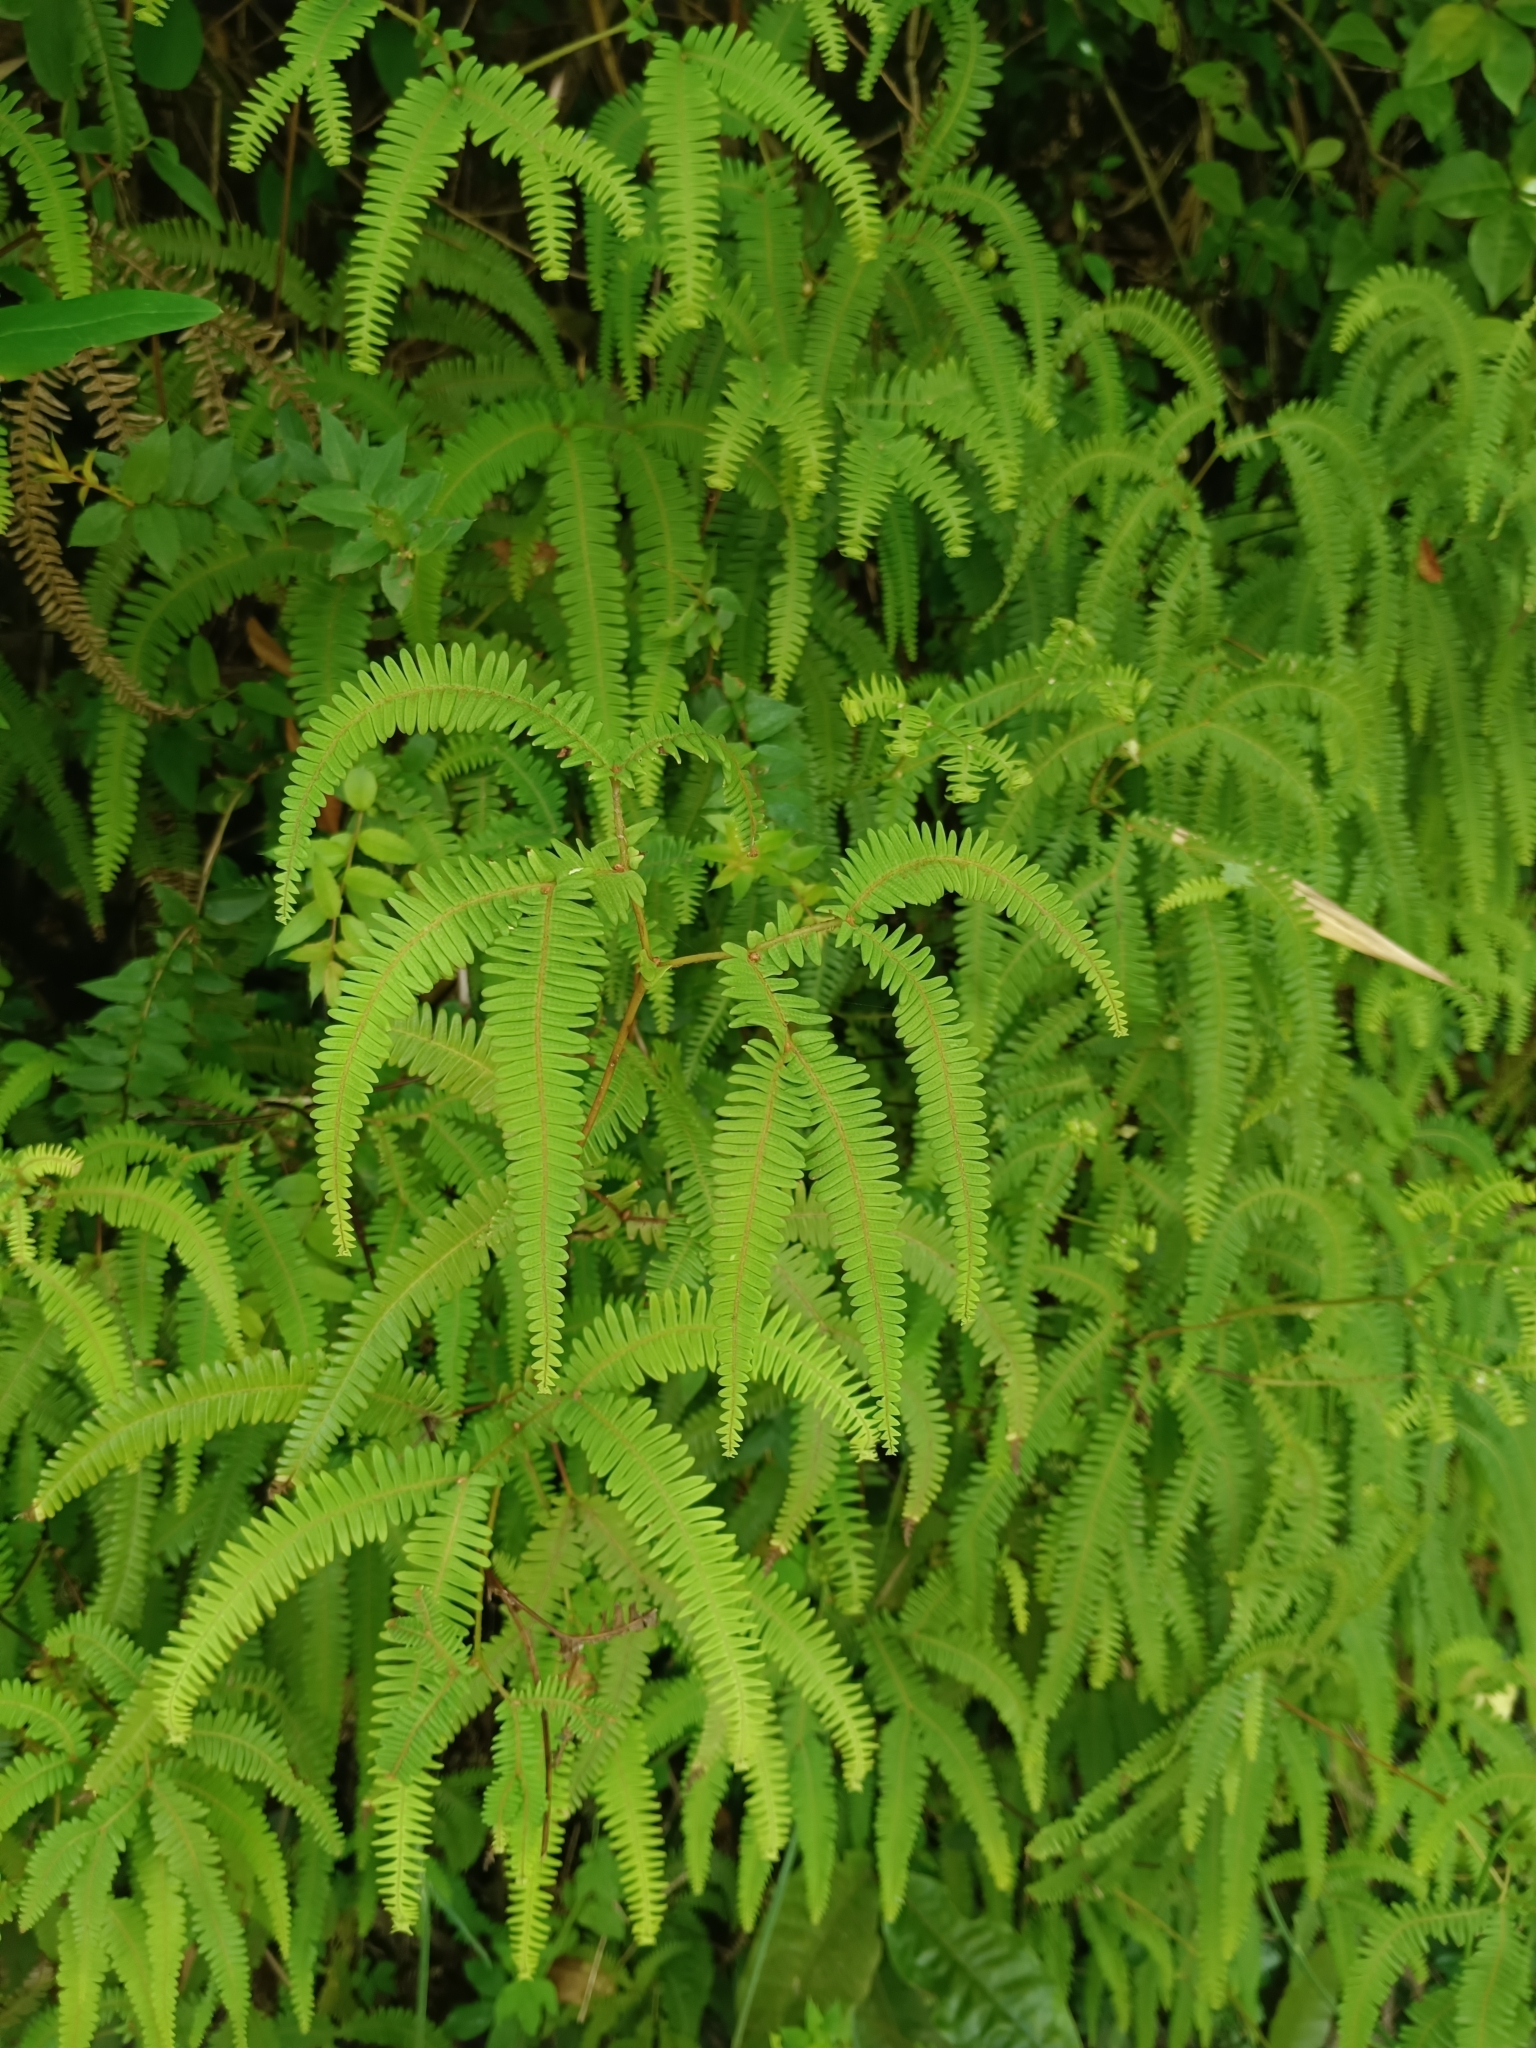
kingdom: Plantae
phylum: Tracheophyta
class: Polypodiopsida
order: Gleicheniales
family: Gleicheniaceae
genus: Sticherus
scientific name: Sticherus squamulosus
